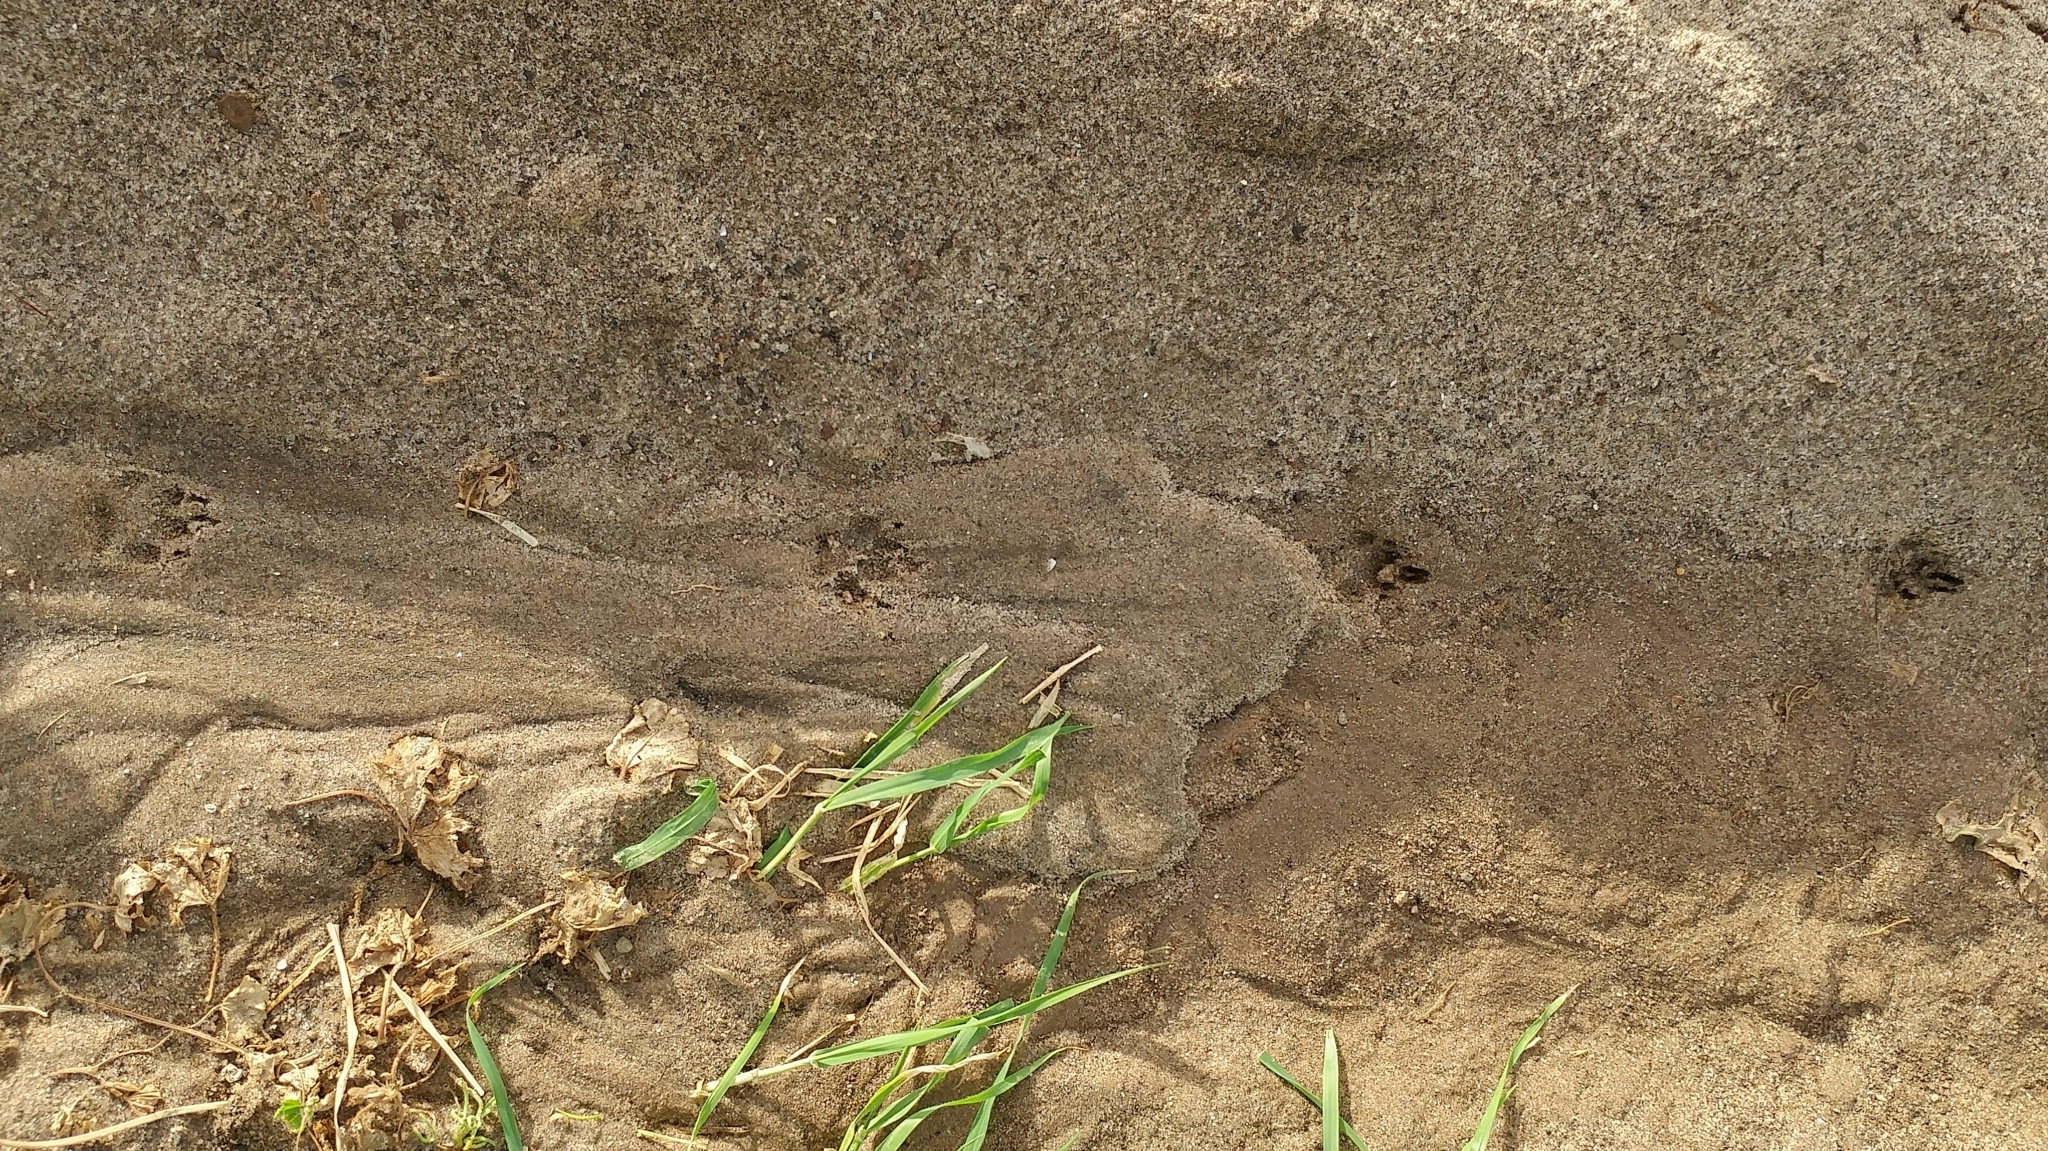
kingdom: Animalia
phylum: Chordata
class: Mammalia
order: Carnivora
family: Canidae
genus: Urocyon
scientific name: Urocyon littoralis
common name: Island gray fox
